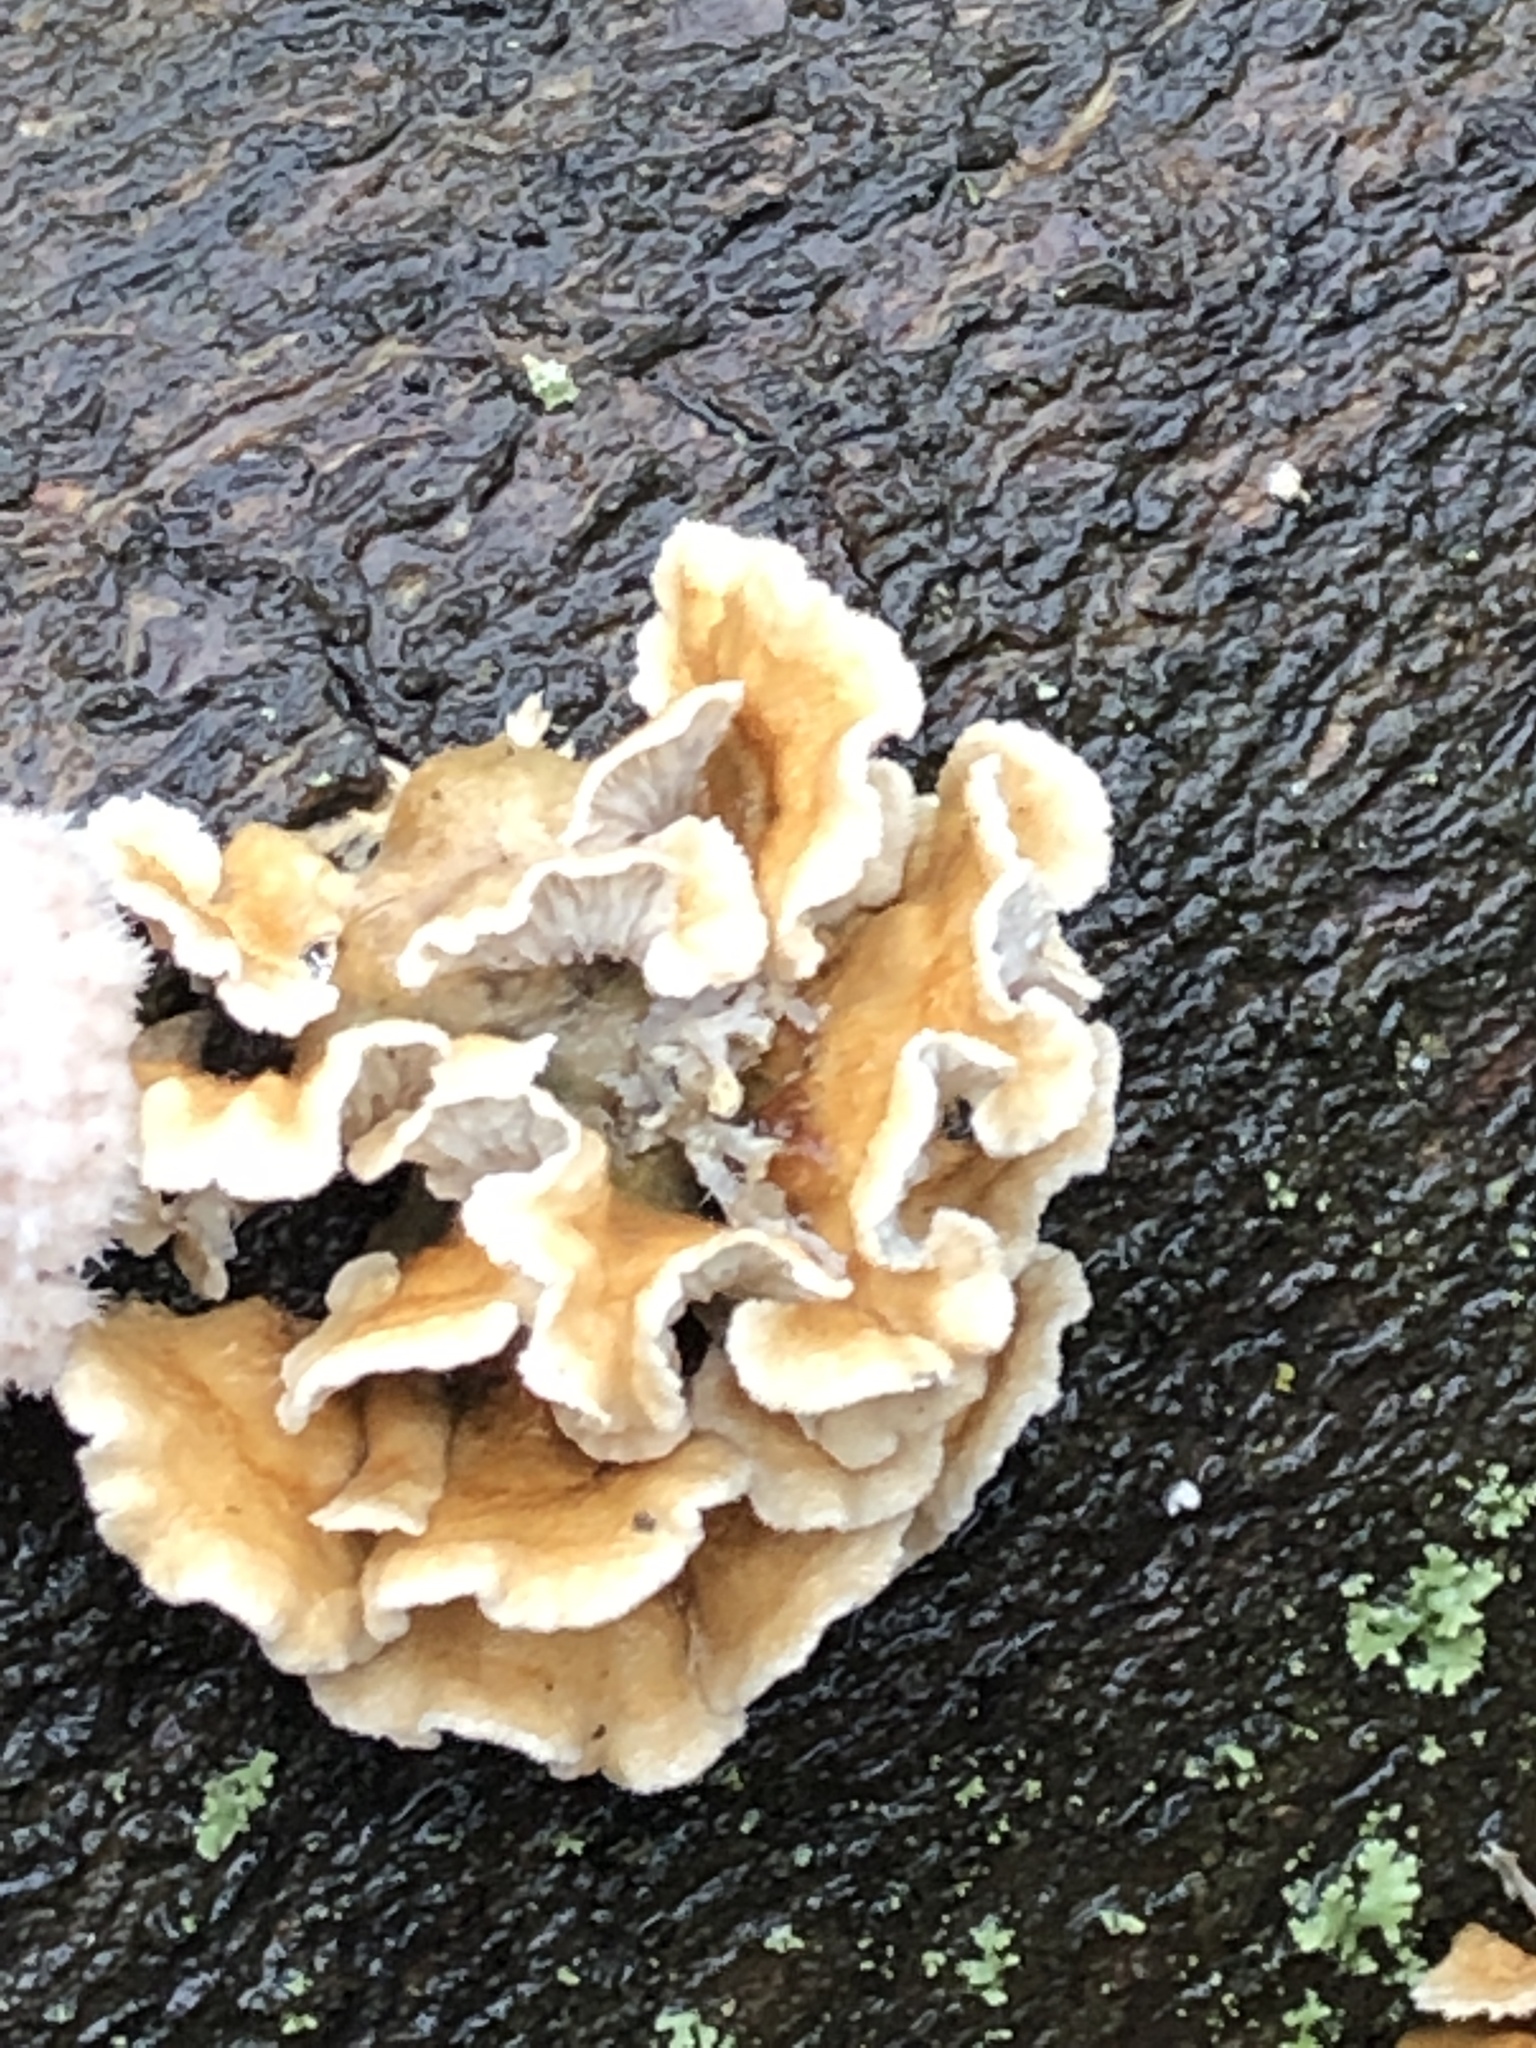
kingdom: Fungi
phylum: Basidiomycota
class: Agaricomycetes
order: Amylocorticiales
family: Amylocorticiaceae
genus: Plicaturopsis
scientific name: Plicaturopsis crispa
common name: Crimped gill
